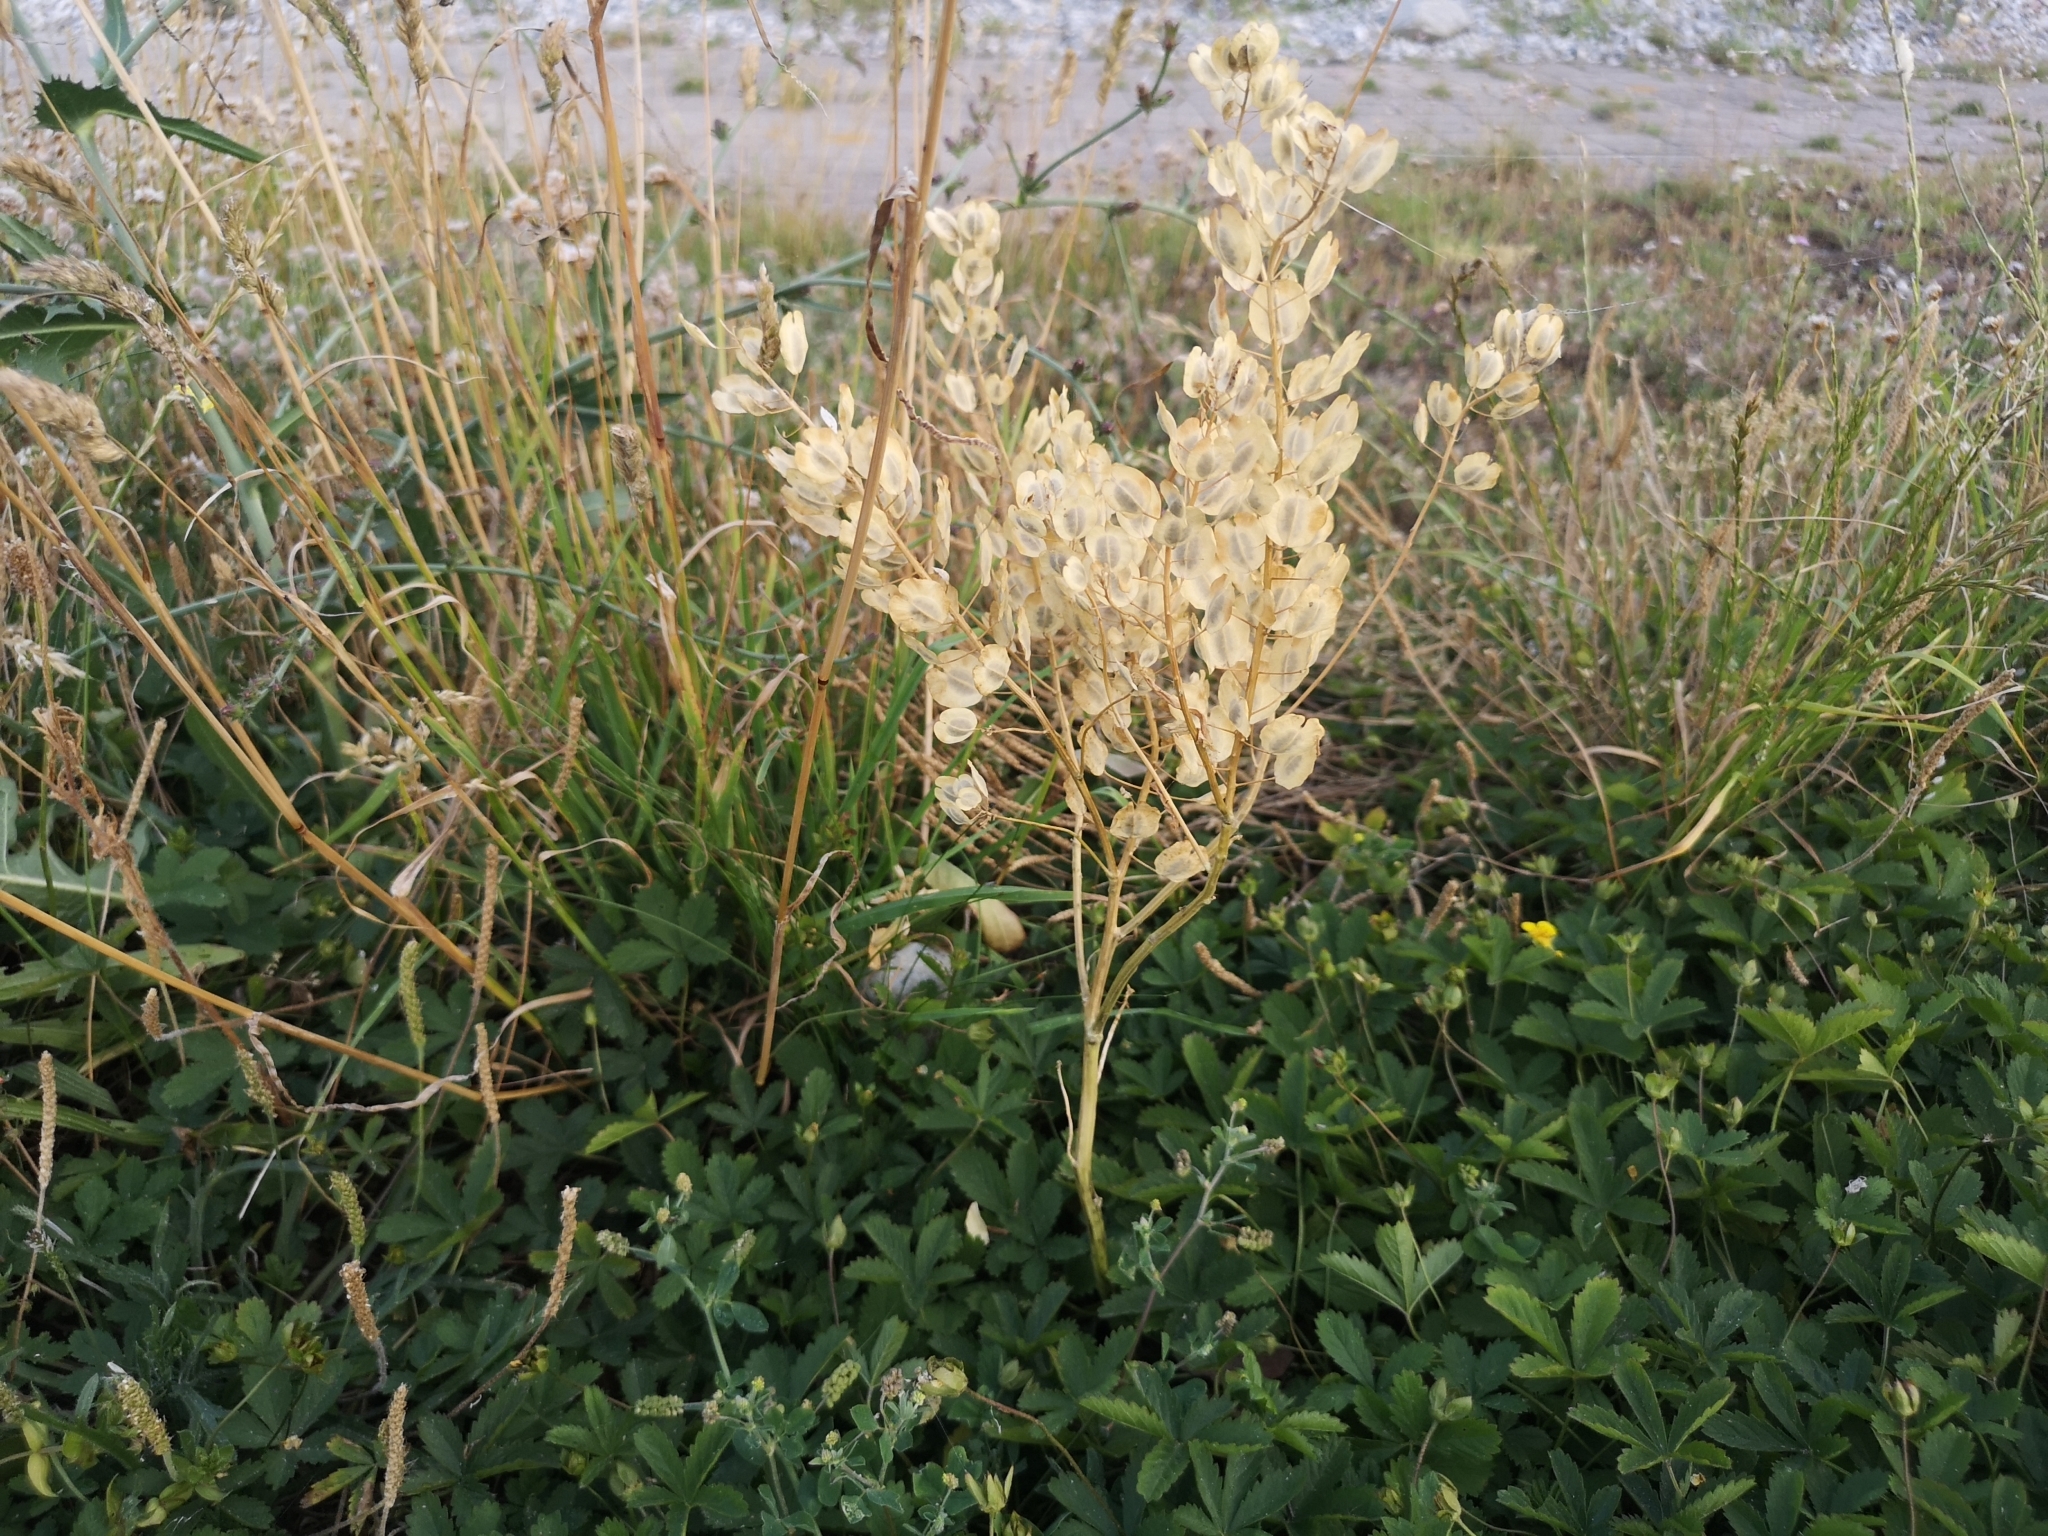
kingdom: Plantae
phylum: Tracheophyta
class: Magnoliopsida
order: Brassicales
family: Brassicaceae
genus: Thlaspi
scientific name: Thlaspi arvense
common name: Field pennycress
